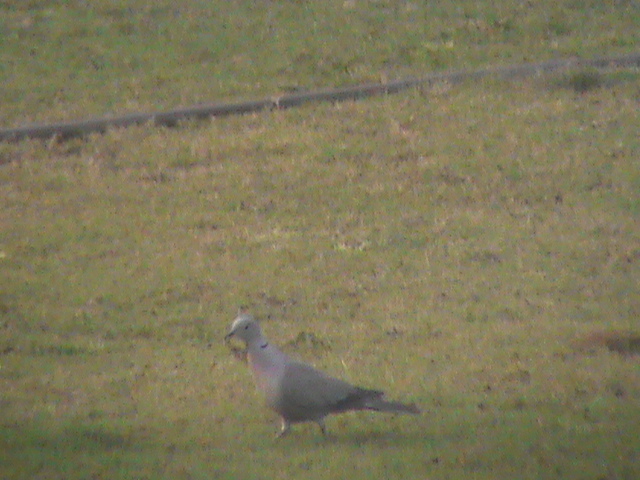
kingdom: Animalia
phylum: Chordata
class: Aves
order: Columbiformes
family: Columbidae
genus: Streptopelia
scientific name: Streptopelia decaocto
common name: Eurasian collared dove
